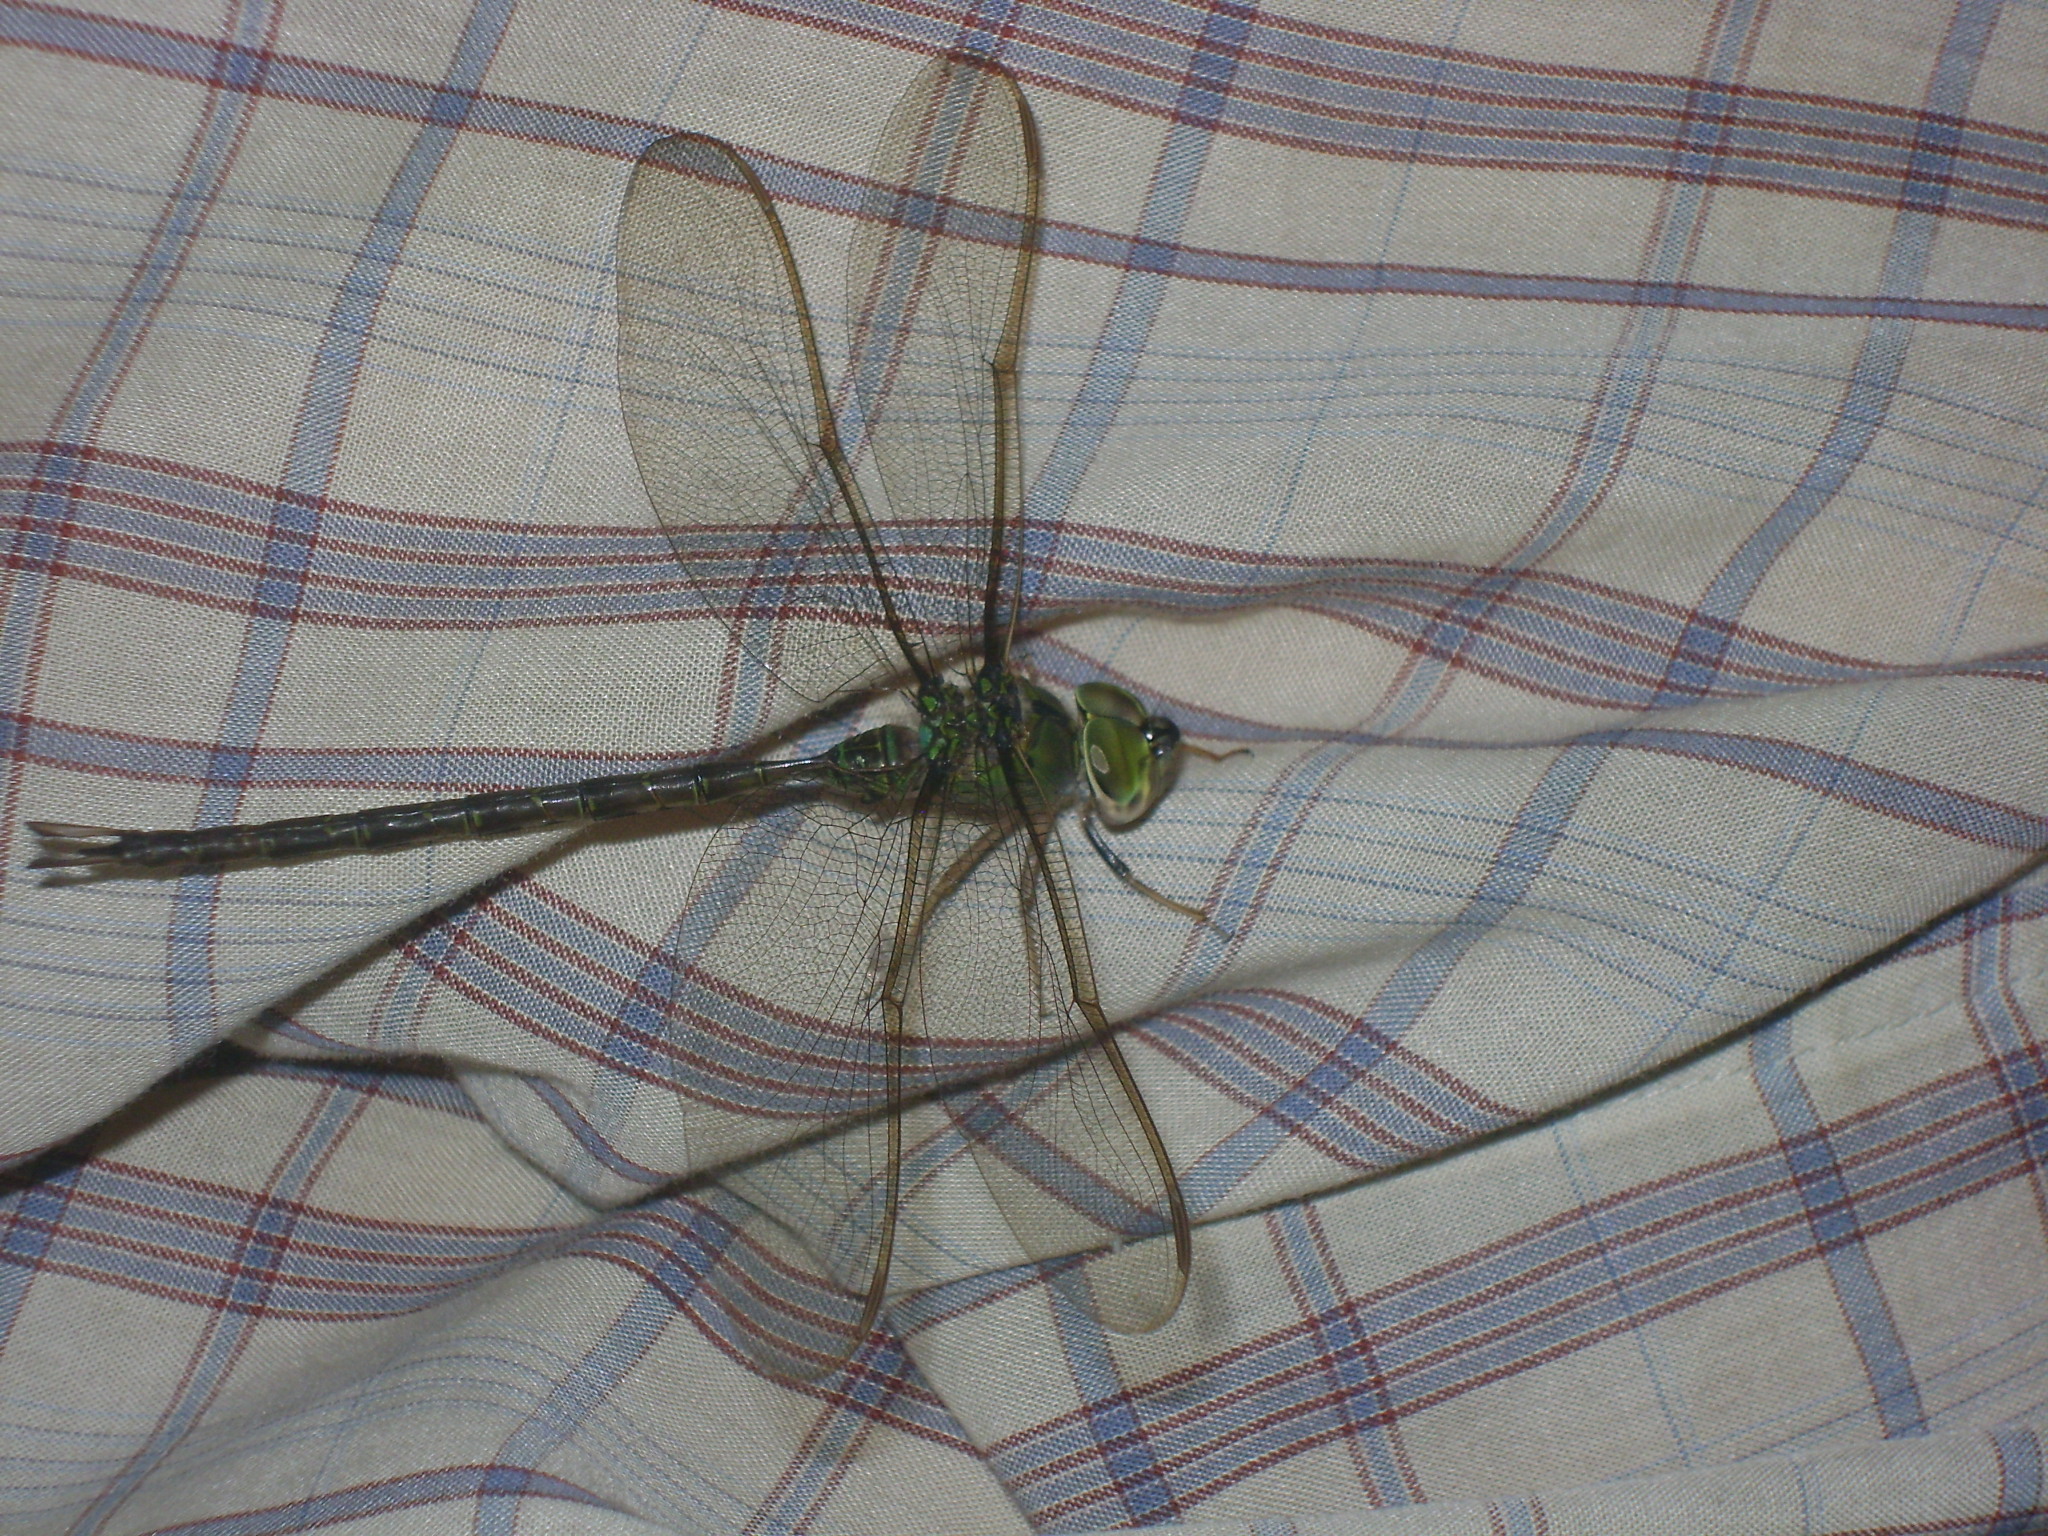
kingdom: Animalia
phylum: Arthropoda
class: Insecta
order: Odonata
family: Aeshnidae
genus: Gynacantha
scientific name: Gynacantha mexicana
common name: Bar-sided darner
